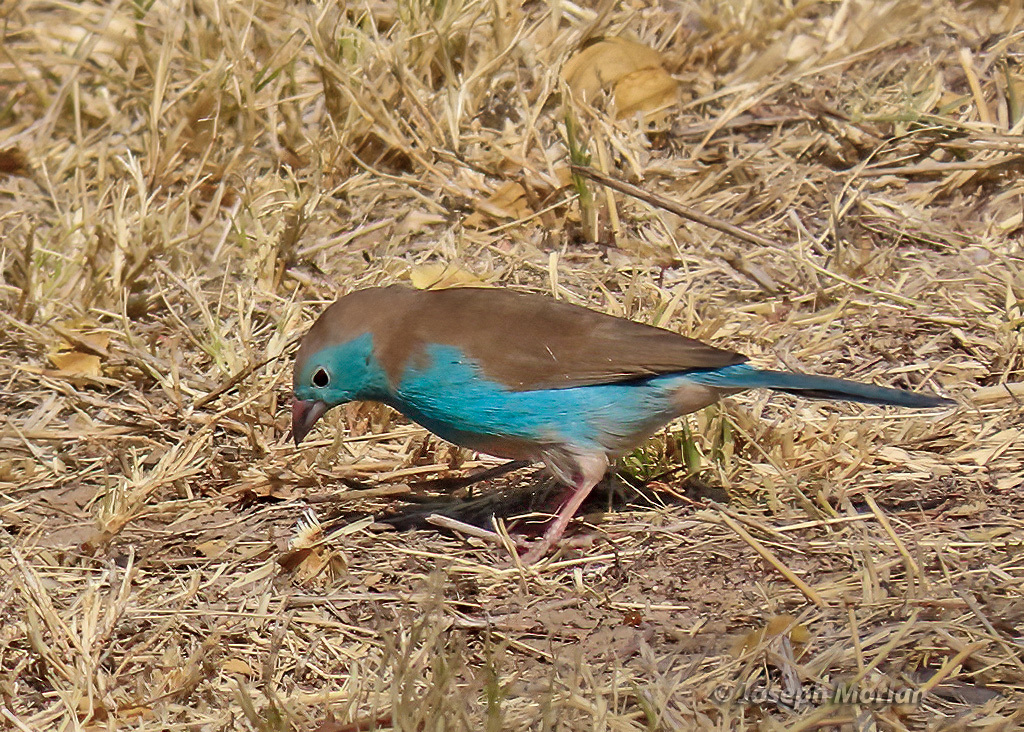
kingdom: Animalia
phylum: Chordata
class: Aves
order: Passeriformes
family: Estrildidae
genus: Uraeginthus
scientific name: Uraeginthus angolensis
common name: Blue waxbill
